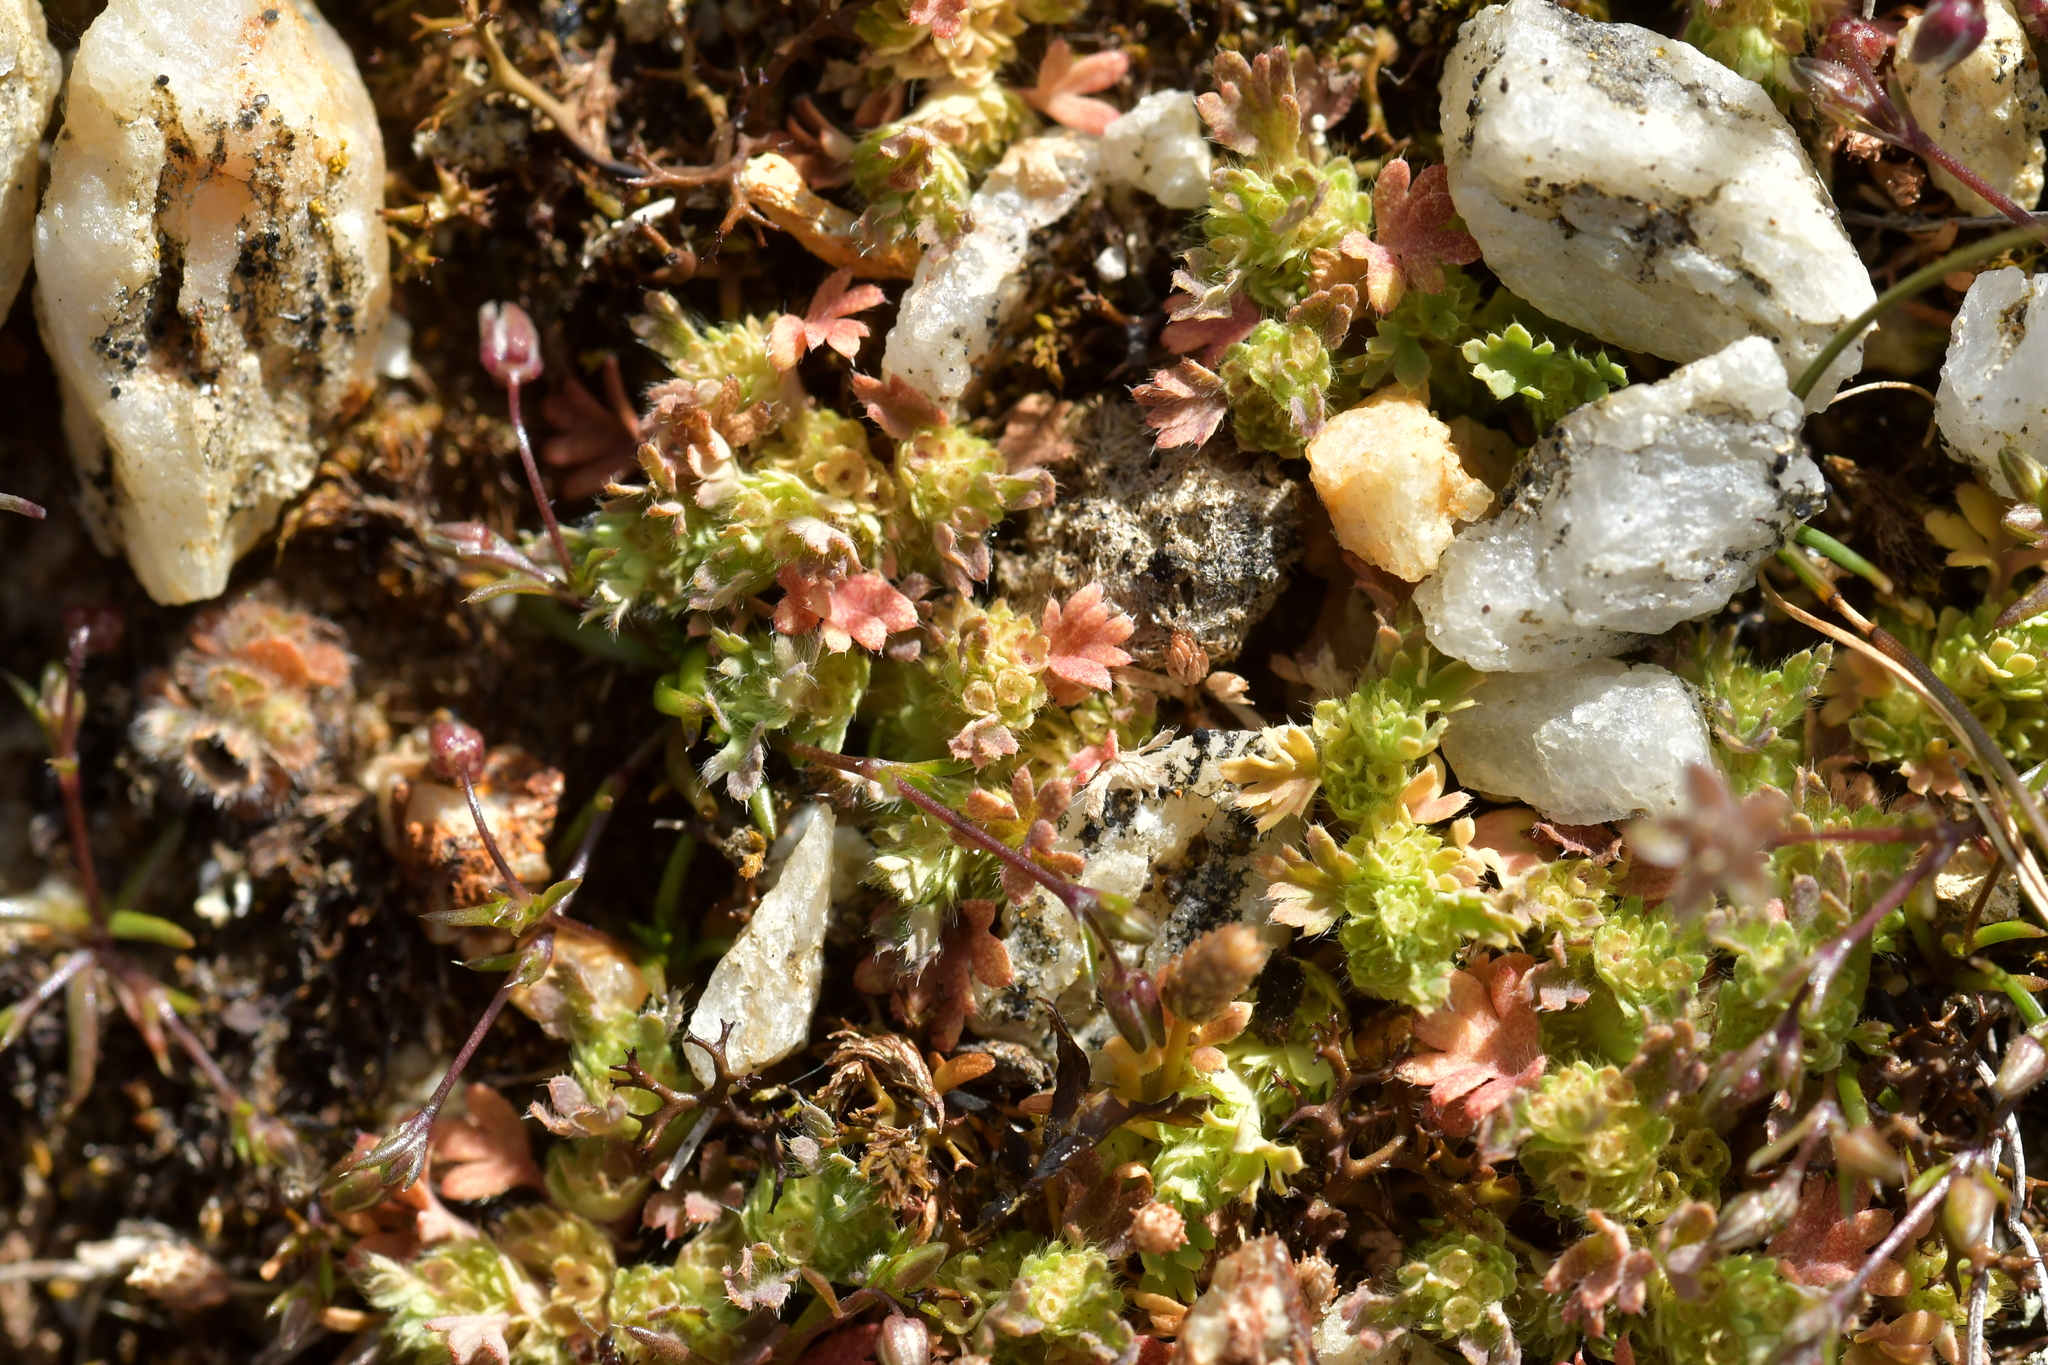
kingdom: Plantae
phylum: Tracheophyta
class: Magnoliopsida
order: Rosales
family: Rosaceae
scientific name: Rosaceae
